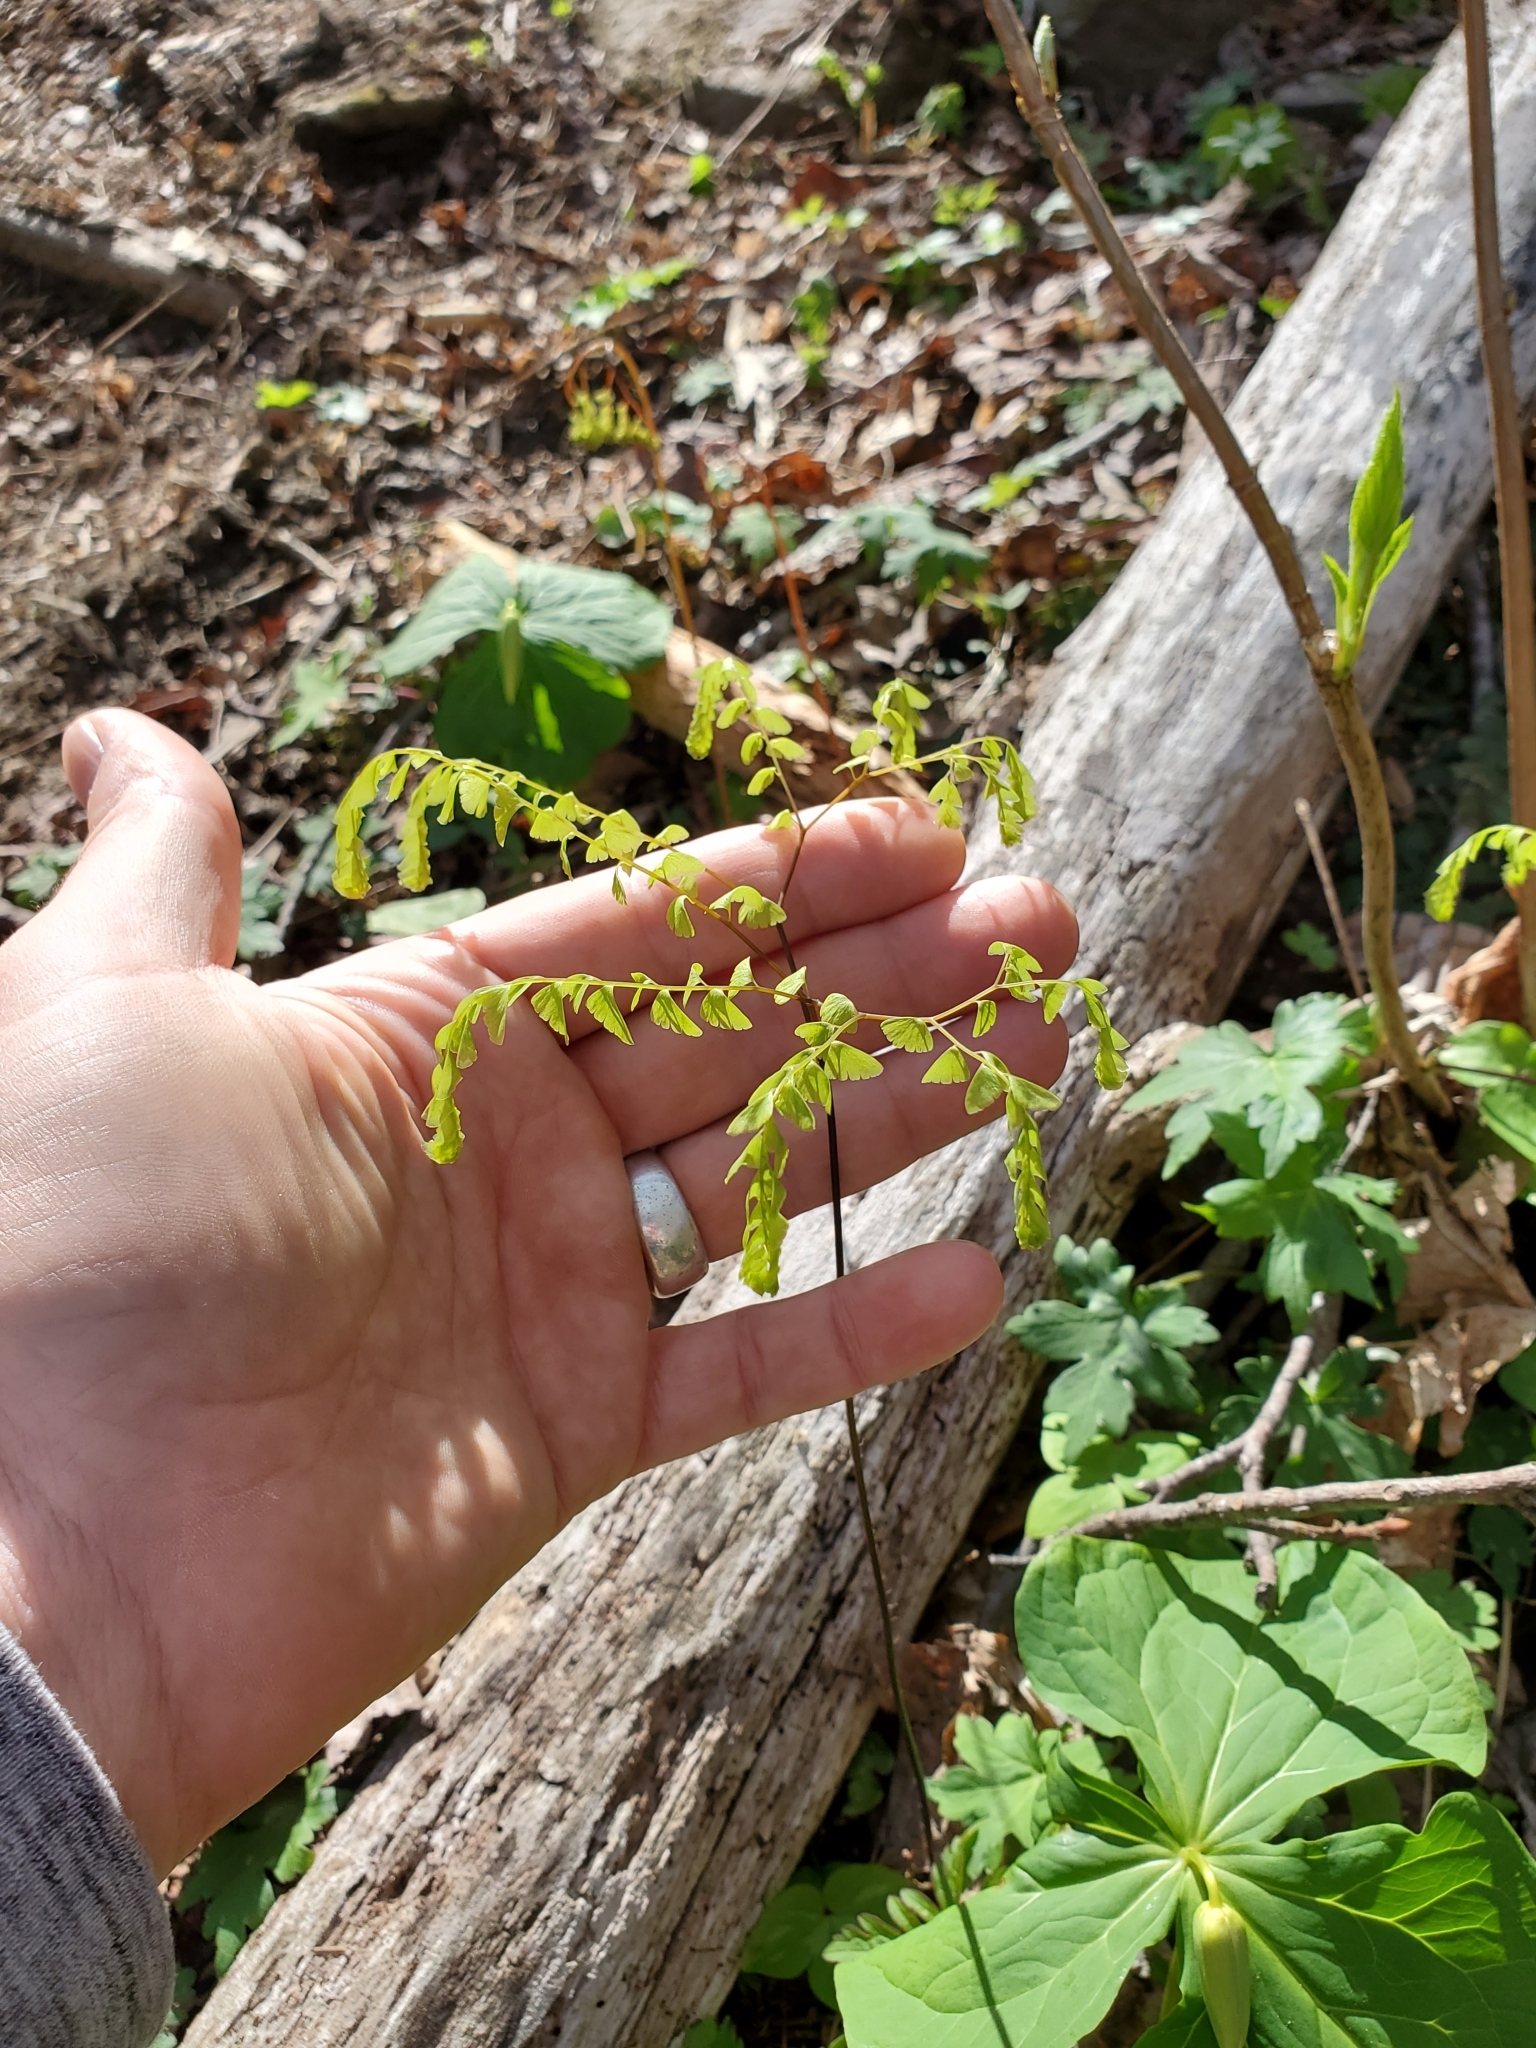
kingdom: Plantae
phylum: Tracheophyta
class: Polypodiopsida
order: Polypodiales
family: Pteridaceae
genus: Adiantum
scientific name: Adiantum pedatum
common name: Five-finger fern
